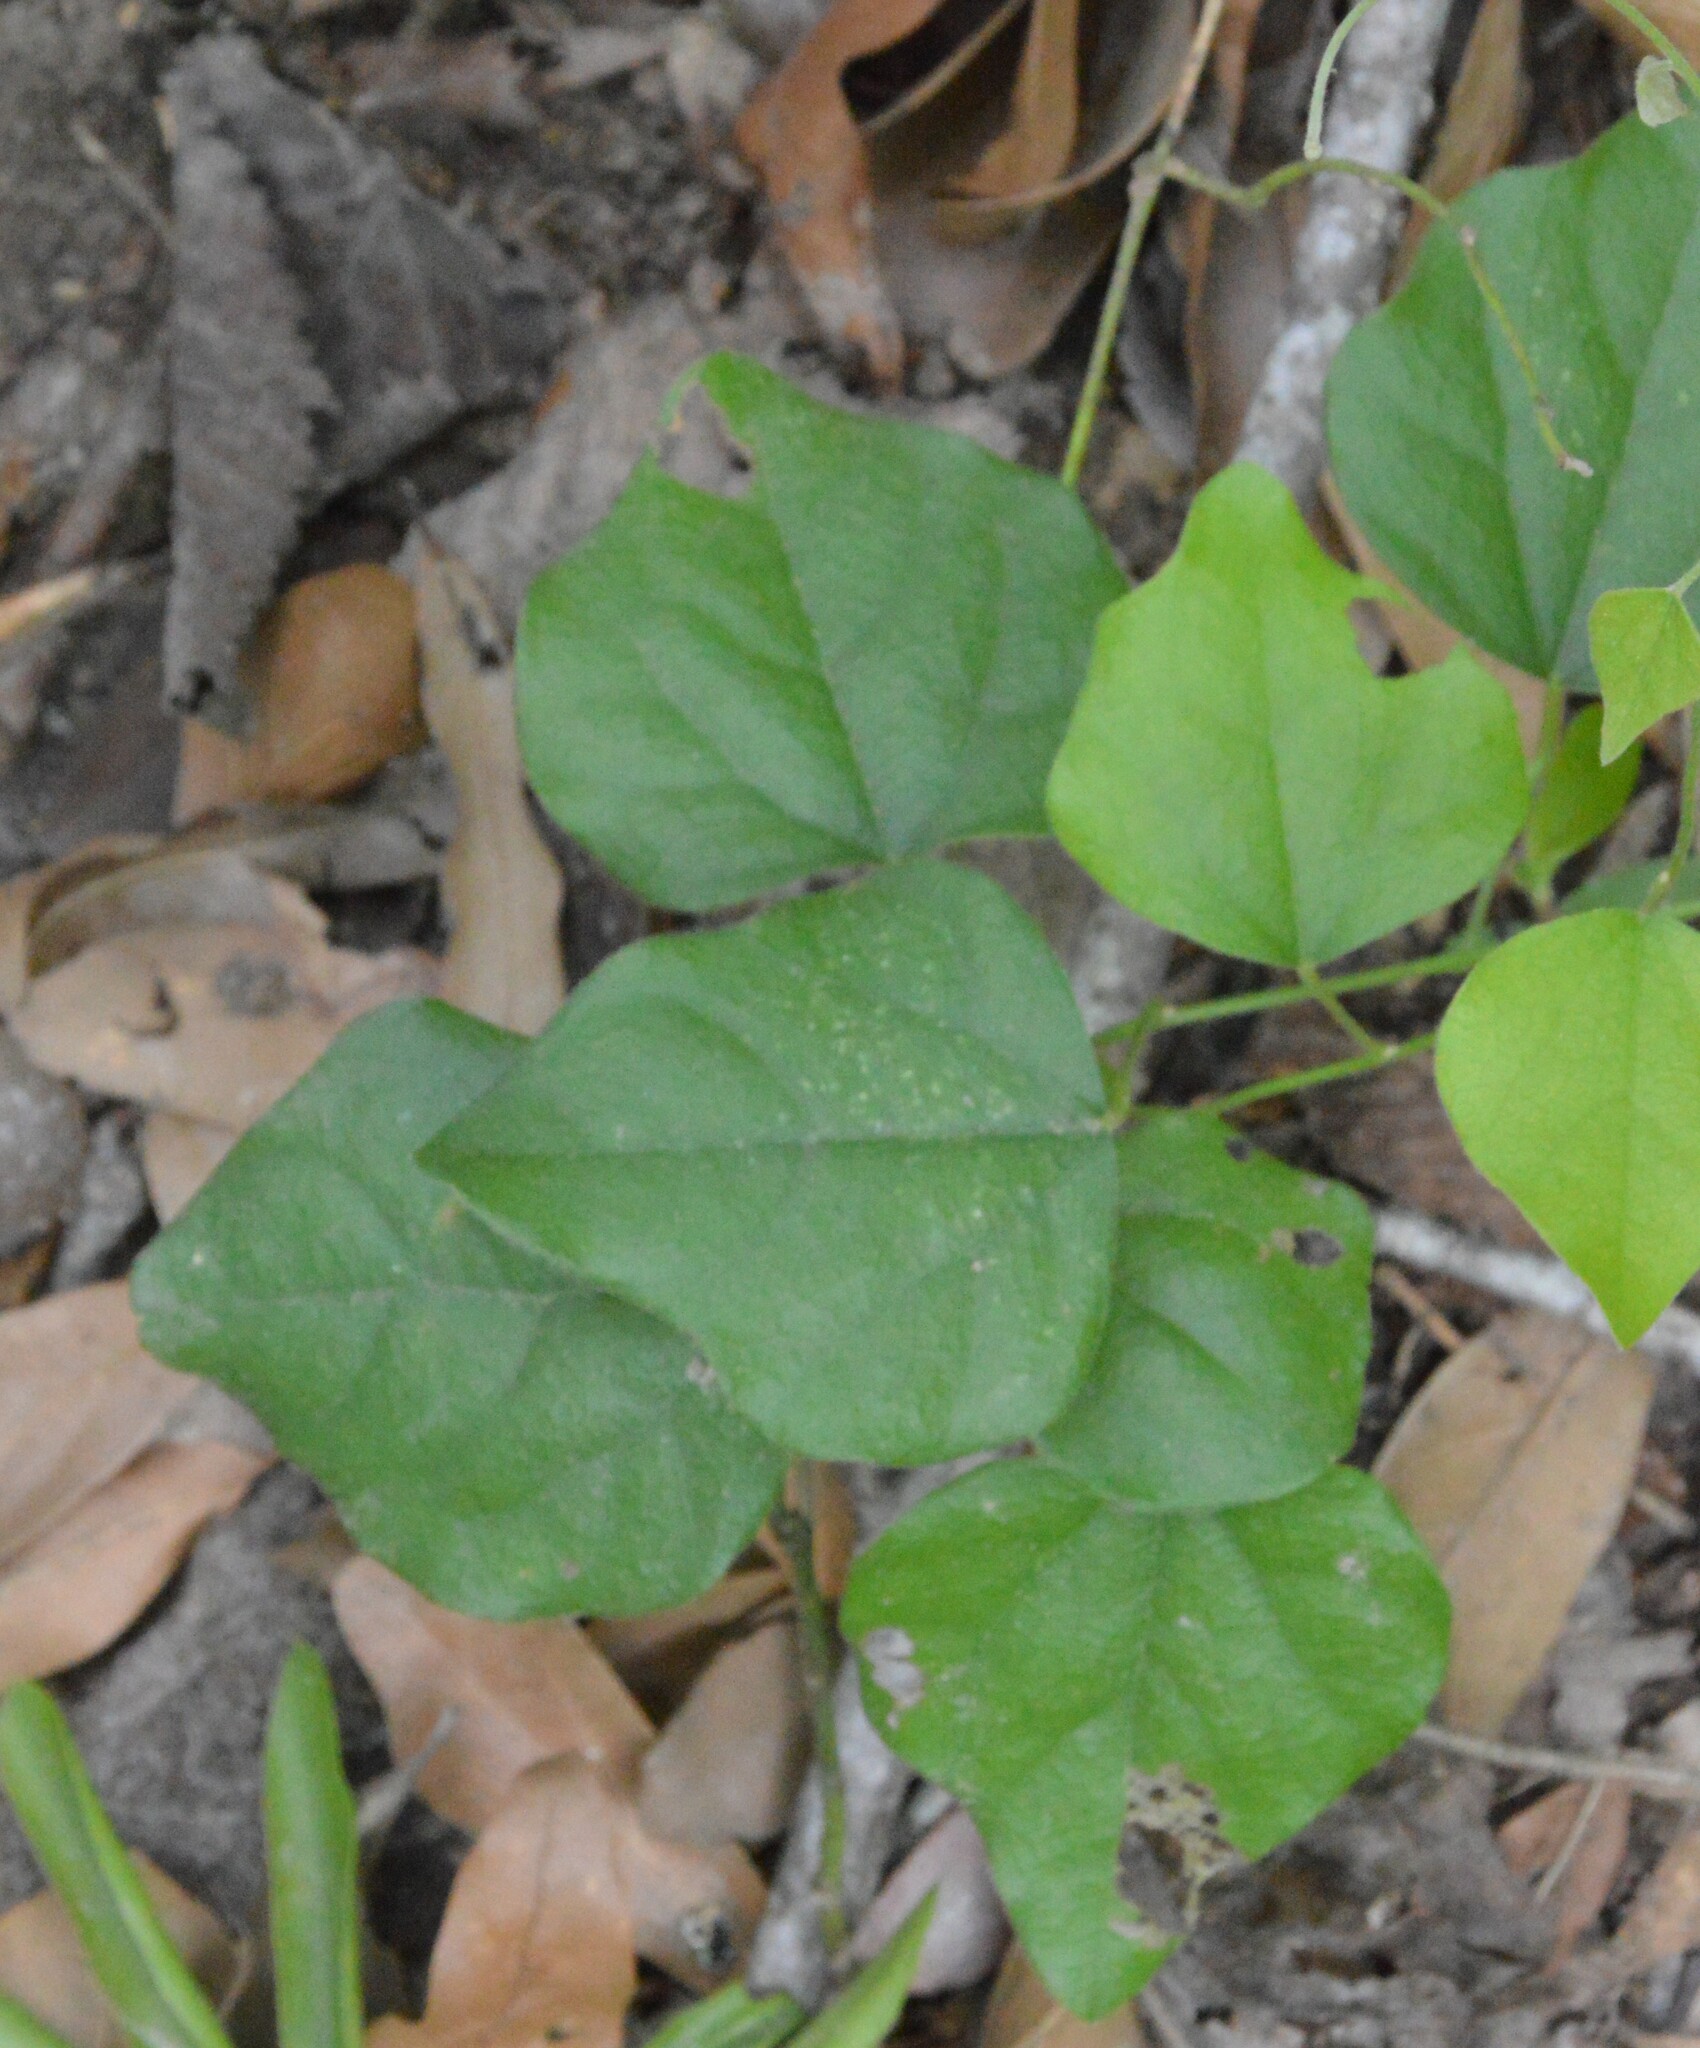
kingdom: Plantae
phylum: Tracheophyta
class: Magnoliopsida
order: Ranunculales
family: Menispermaceae
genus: Cocculus
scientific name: Cocculus carolinus
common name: Carolina moonseed
